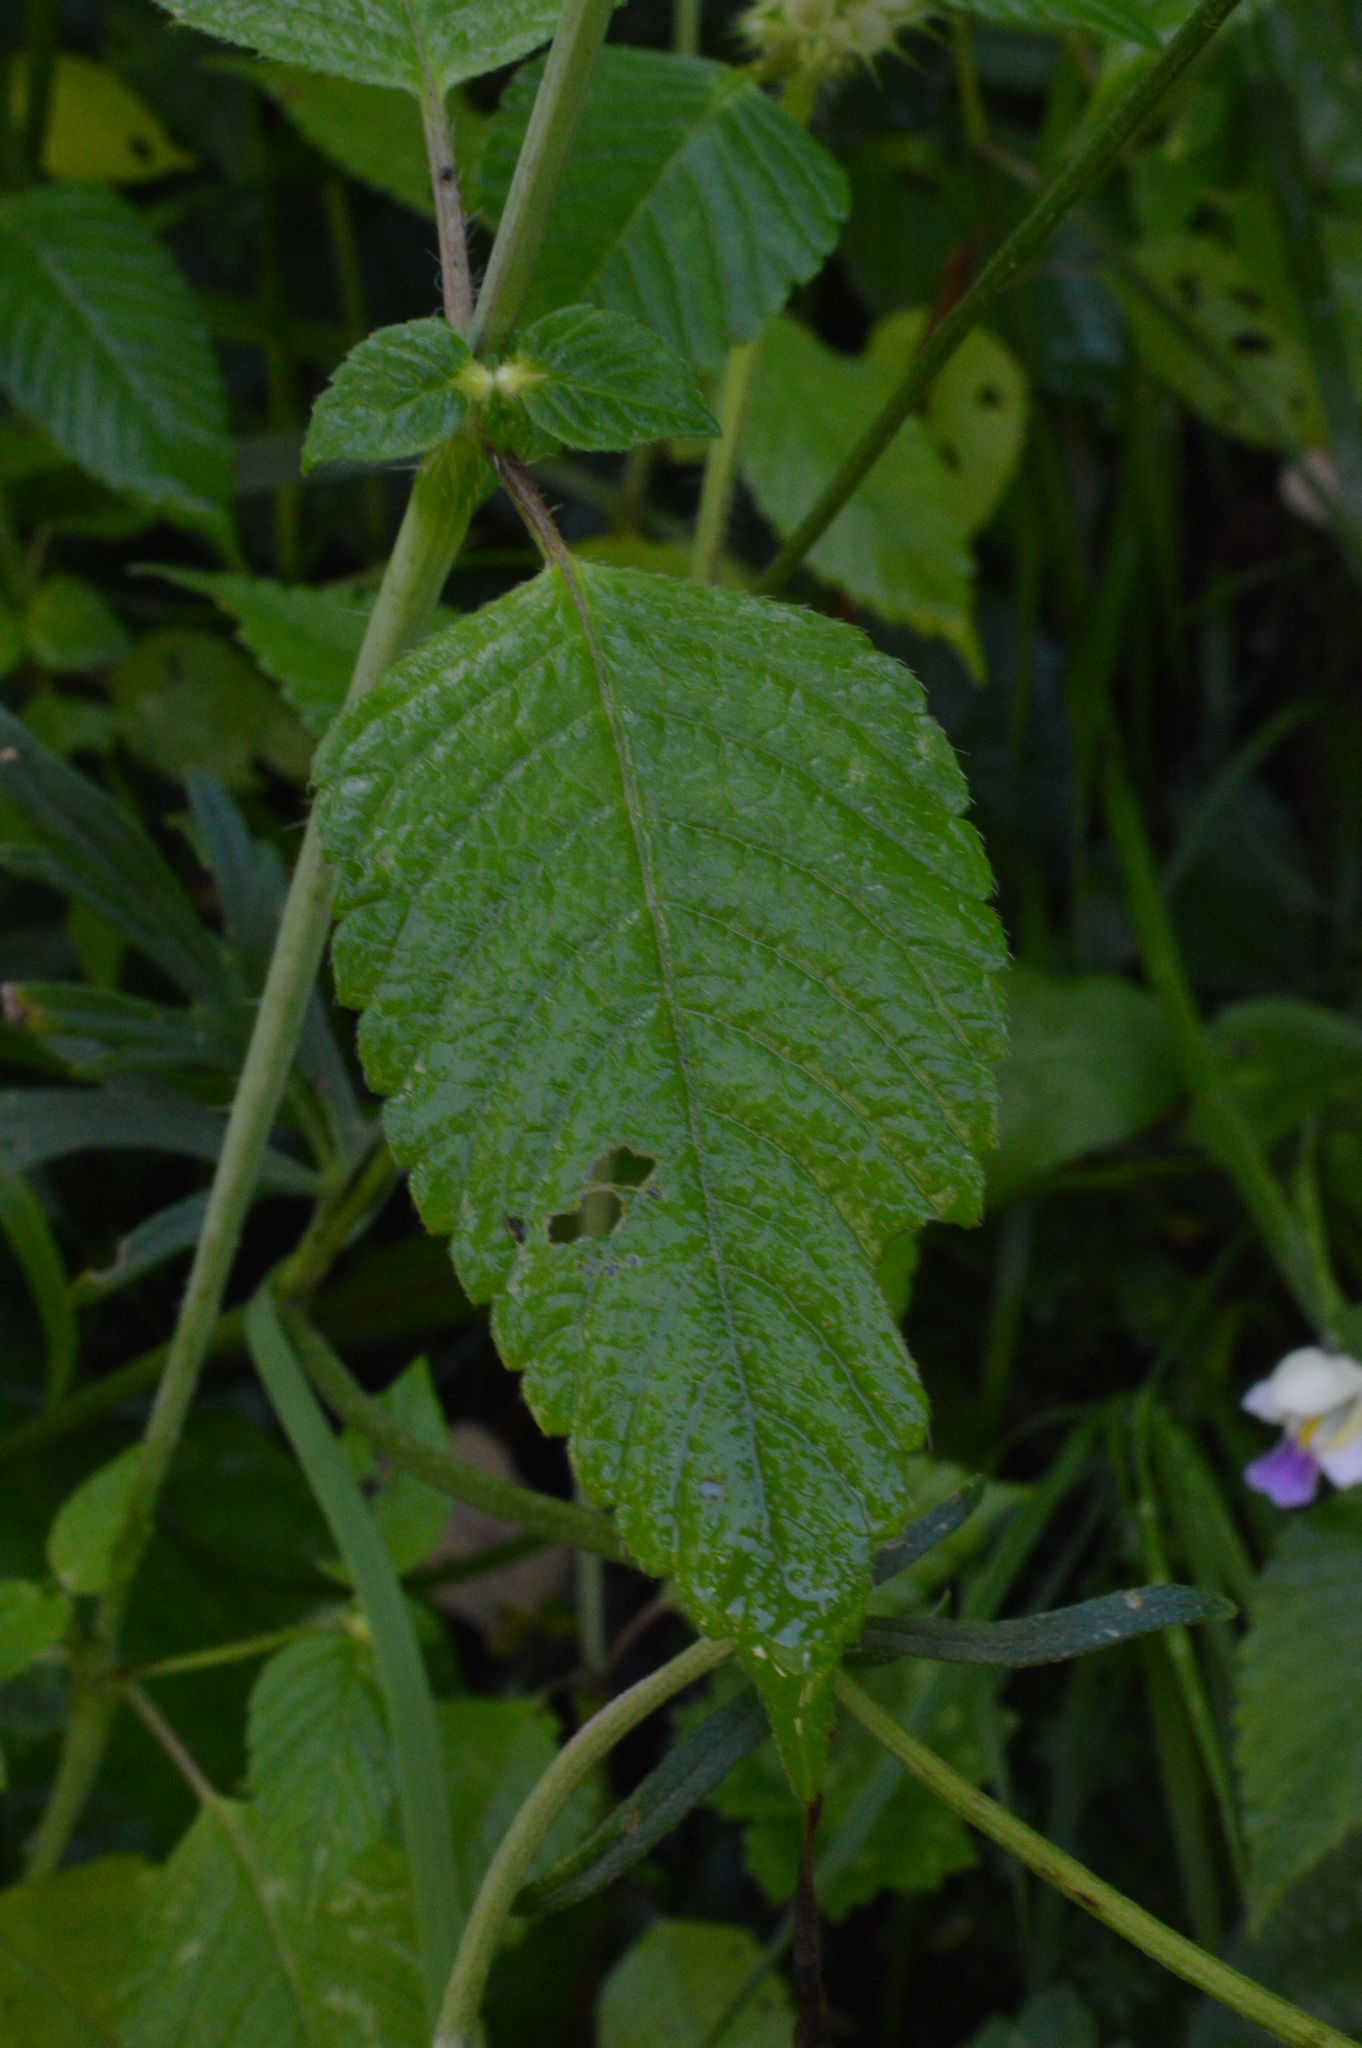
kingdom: Plantae
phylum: Tracheophyta
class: Magnoliopsida
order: Lamiales
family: Lamiaceae
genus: Galeopsis
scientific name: Galeopsis speciosa
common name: Large-flowered hemp-nettle
